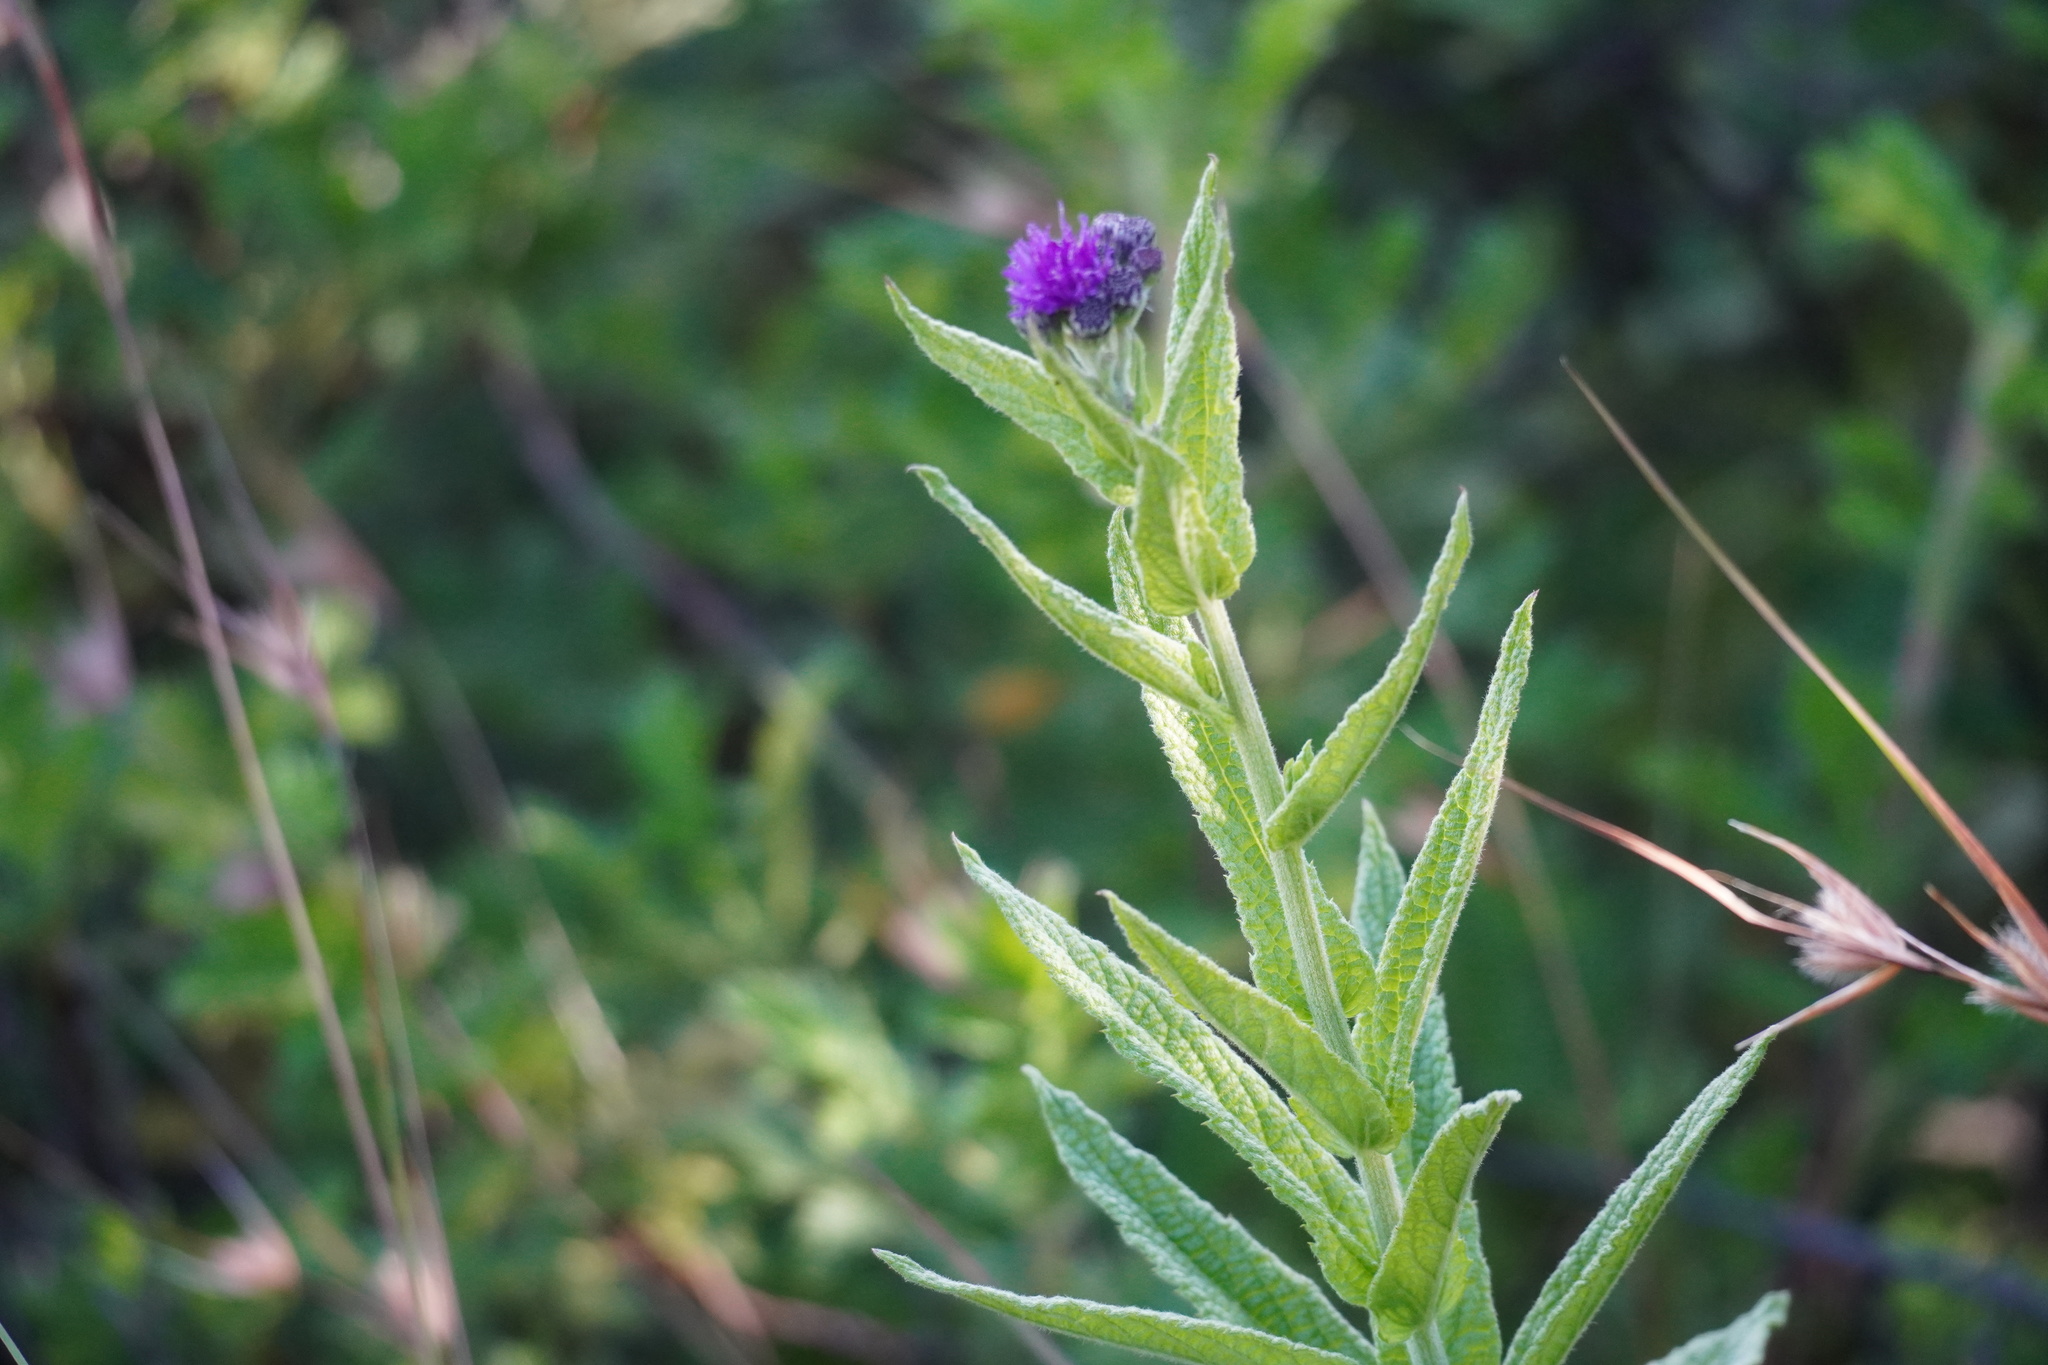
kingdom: Plantae
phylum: Tracheophyta
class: Magnoliopsida
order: Asterales
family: Asteraceae
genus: Hilliardiella
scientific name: Hilliardiella hirsuta
